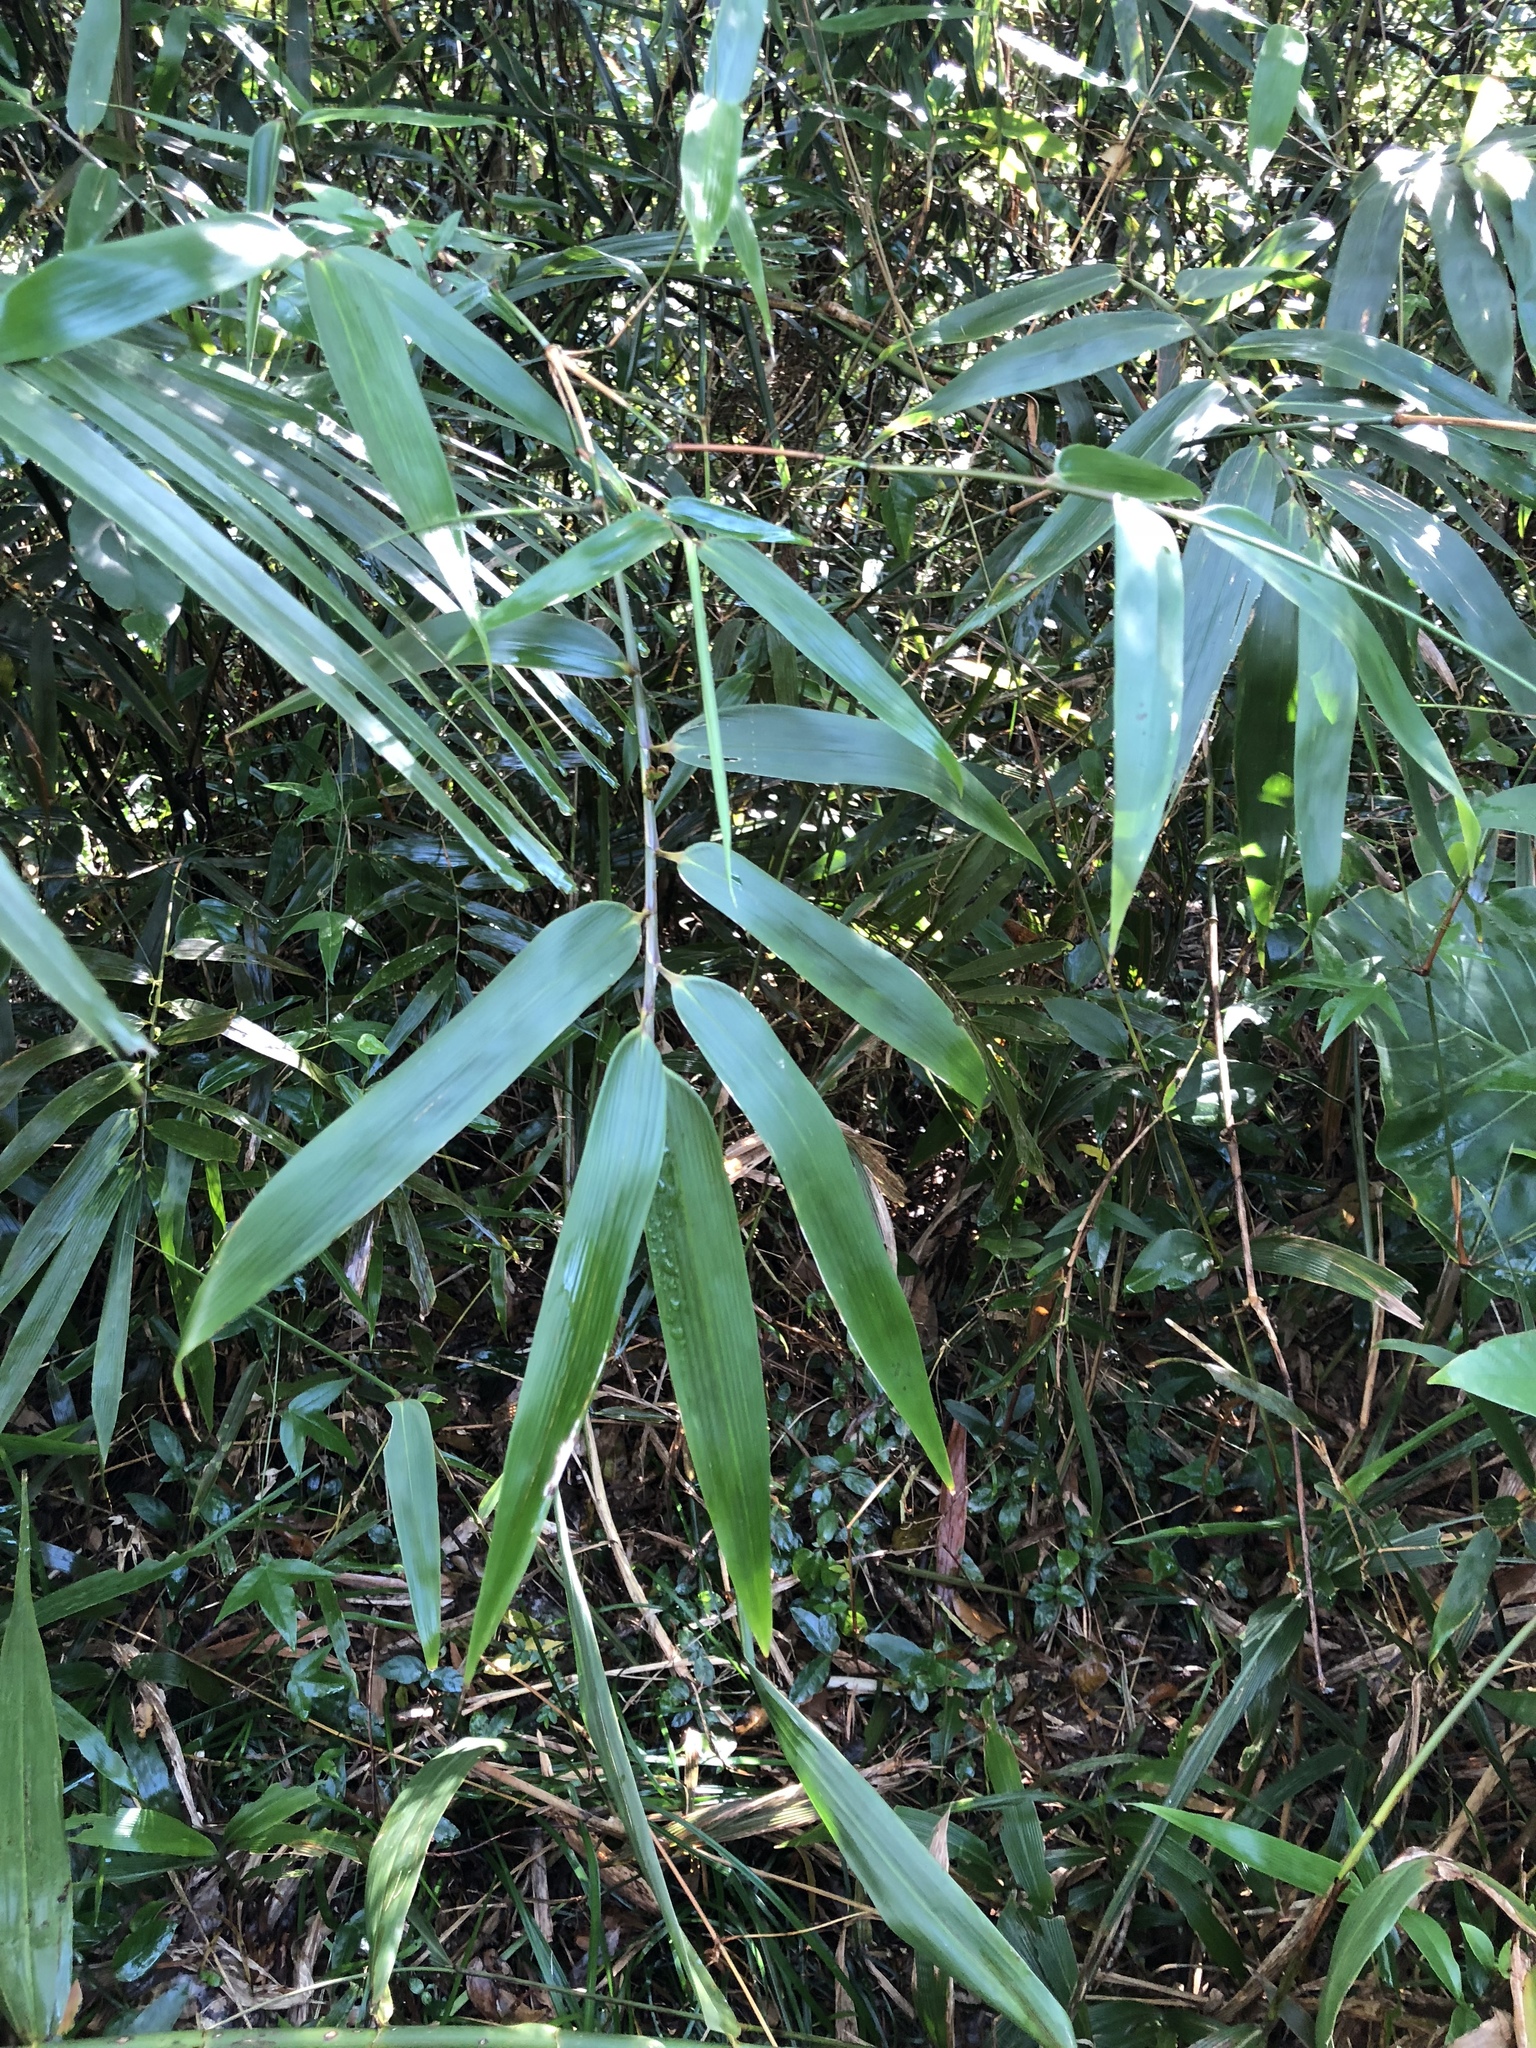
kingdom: Plantae
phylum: Tracheophyta
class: Liliopsida
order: Poales
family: Poaceae
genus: Bambusa
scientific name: Bambusa diffusa
